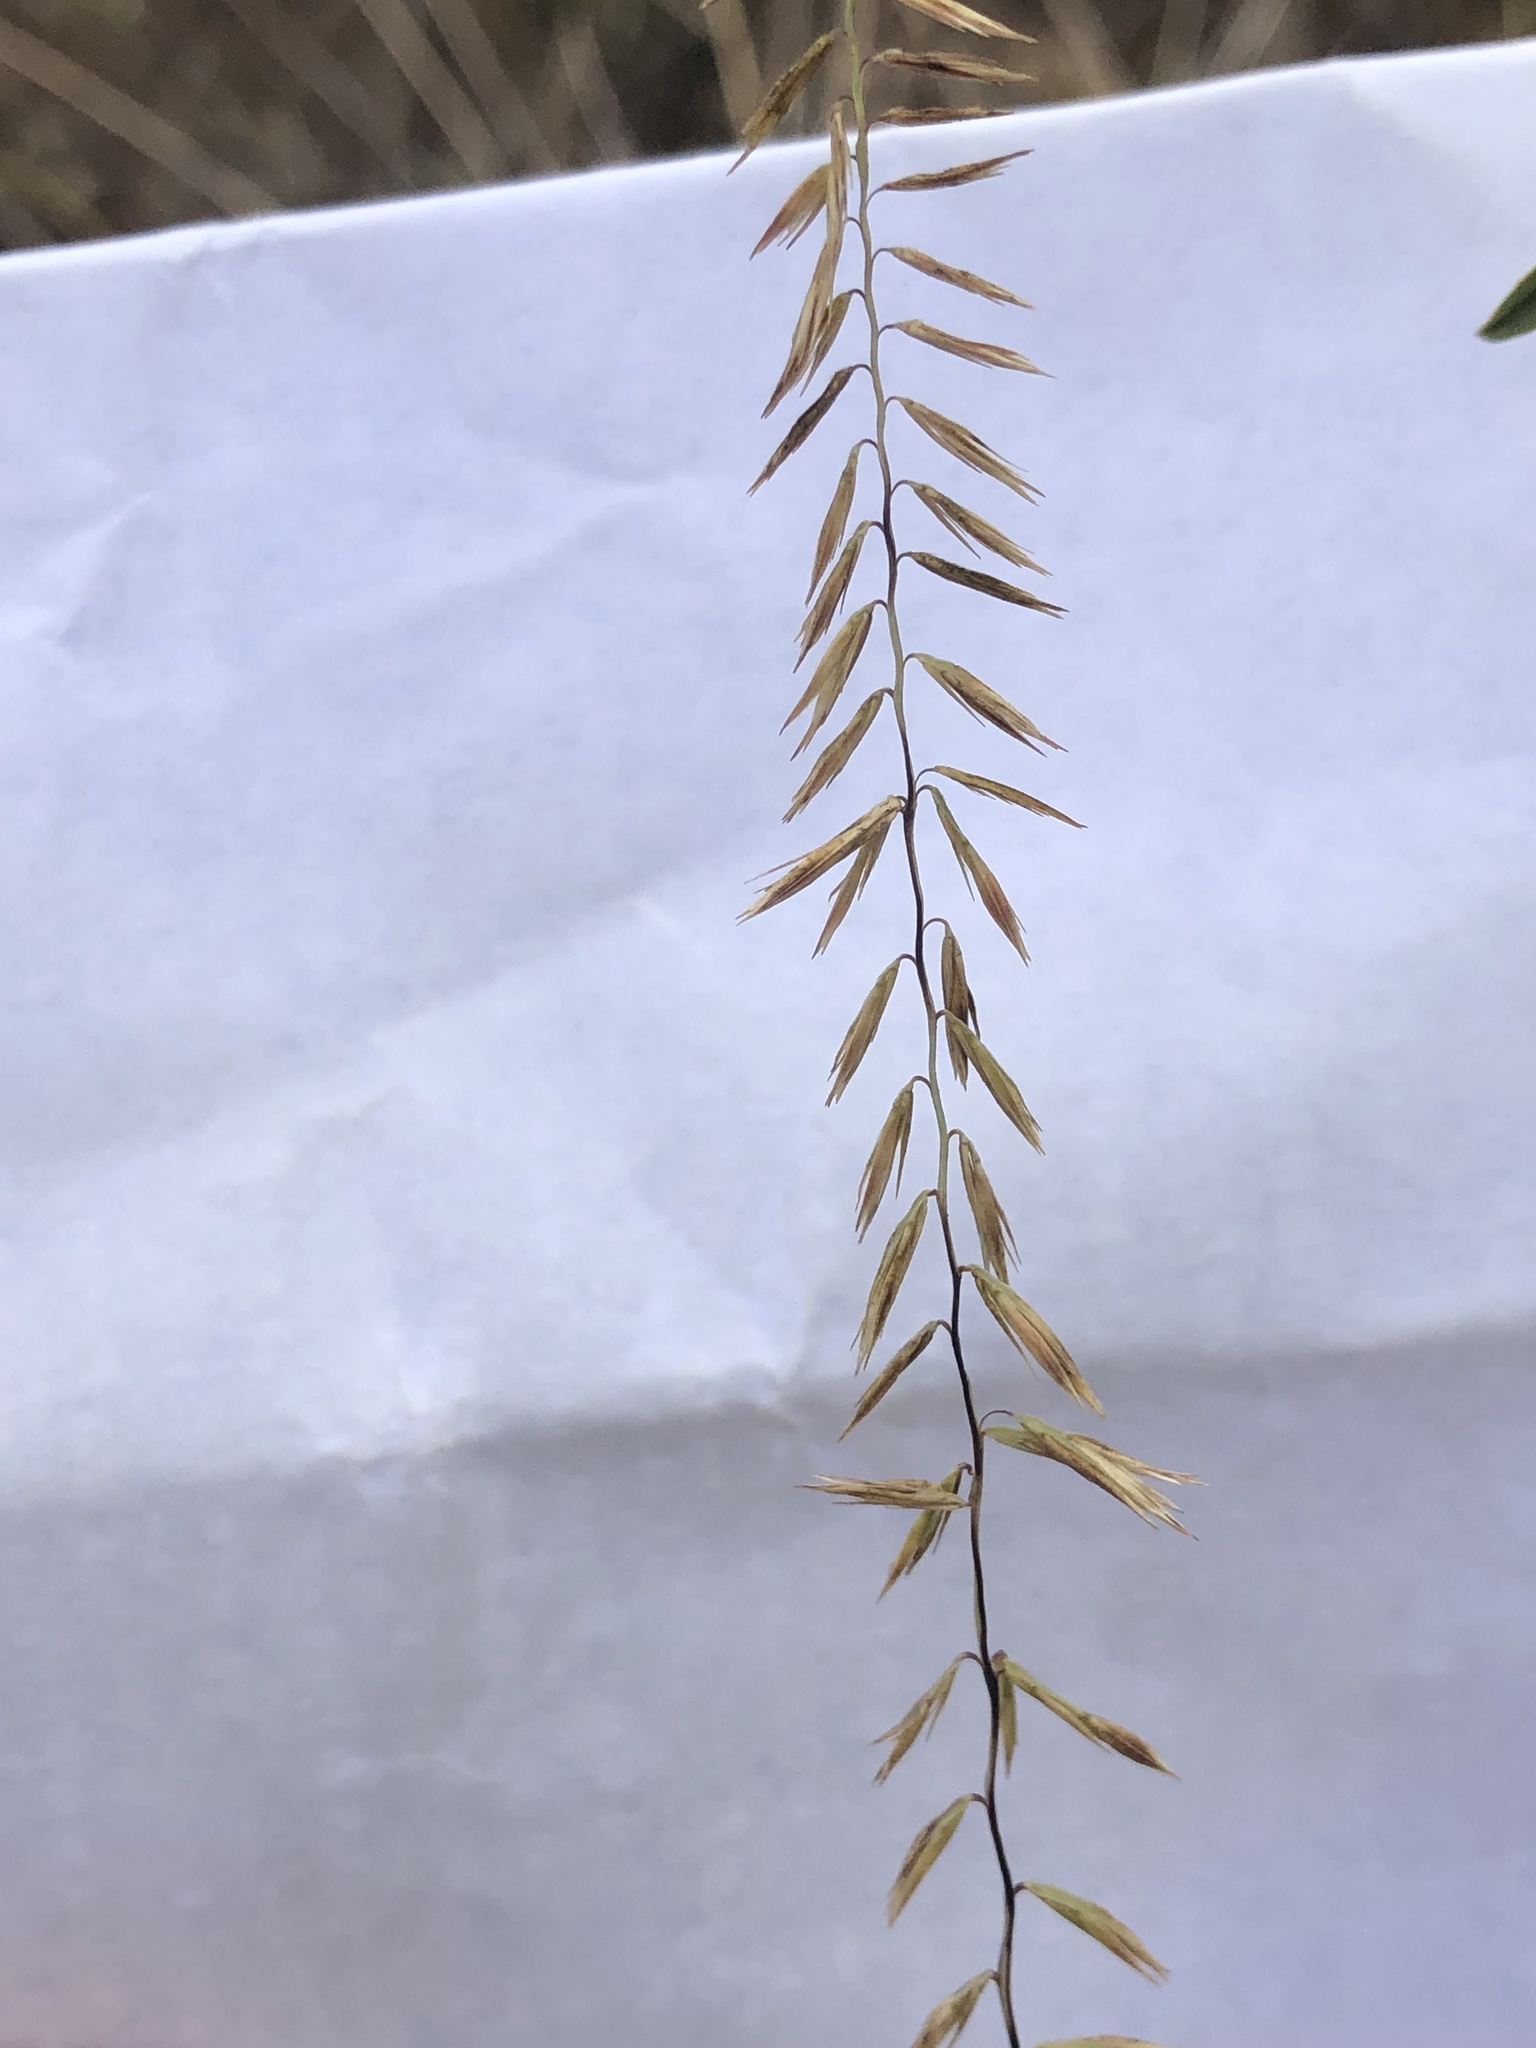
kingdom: Plantae
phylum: Tracheophyta
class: Liliopsida
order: Poales
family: Poaceae
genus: Bouteloua
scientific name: Bouteloua curtipendula
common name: Side-oats grama
